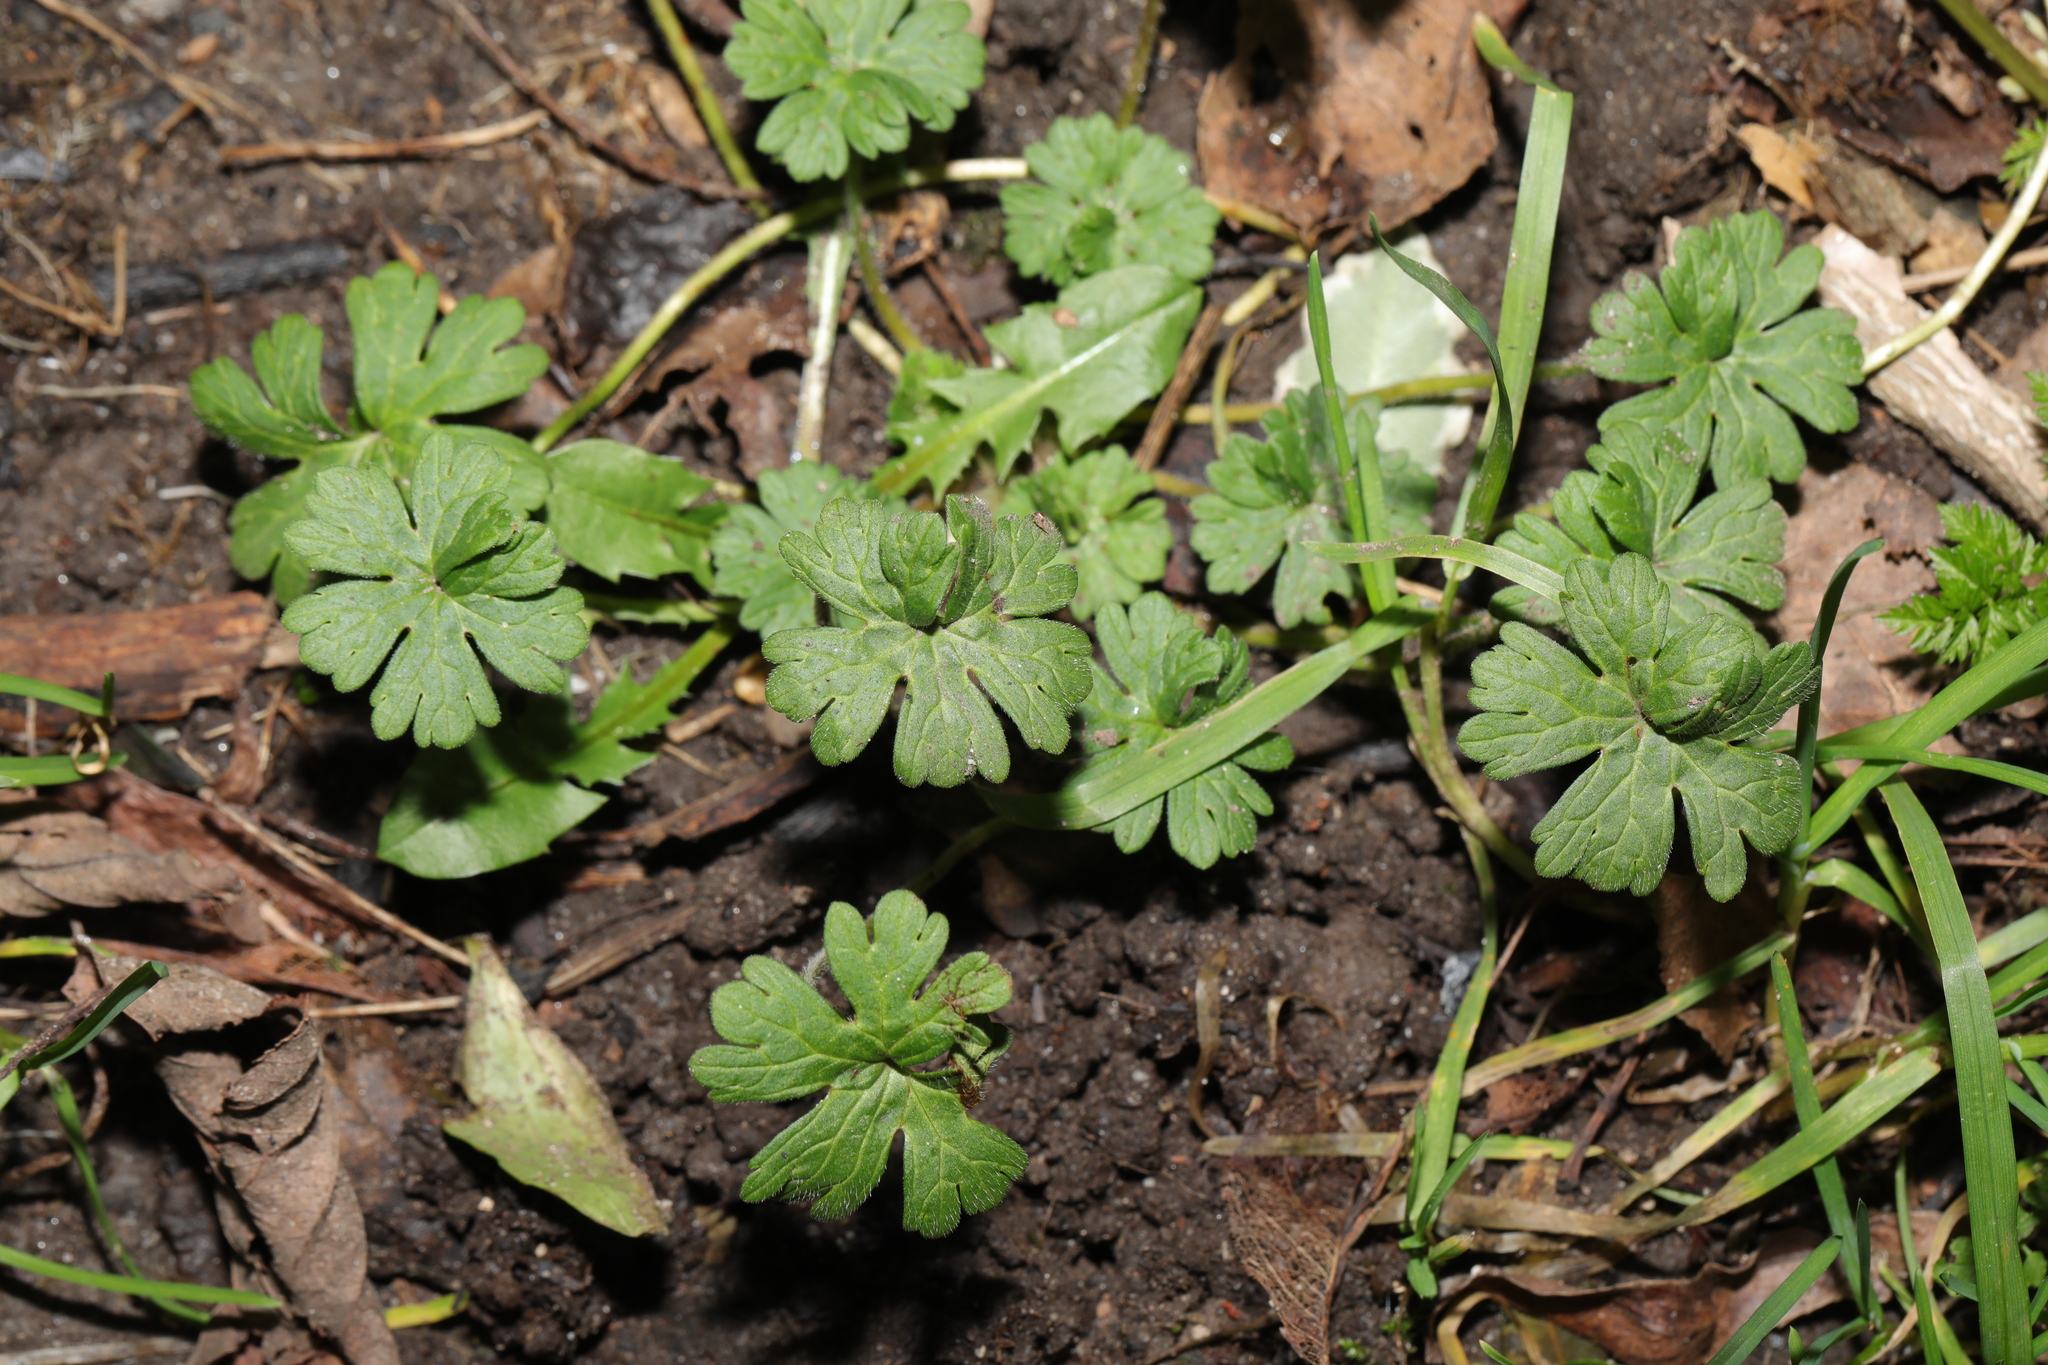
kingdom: Plantae
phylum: Tracheophyta
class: Magnoliopsida
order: Geraniales
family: Geraniaceae
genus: Geranium
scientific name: Geranium pusillum
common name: Small geranium
